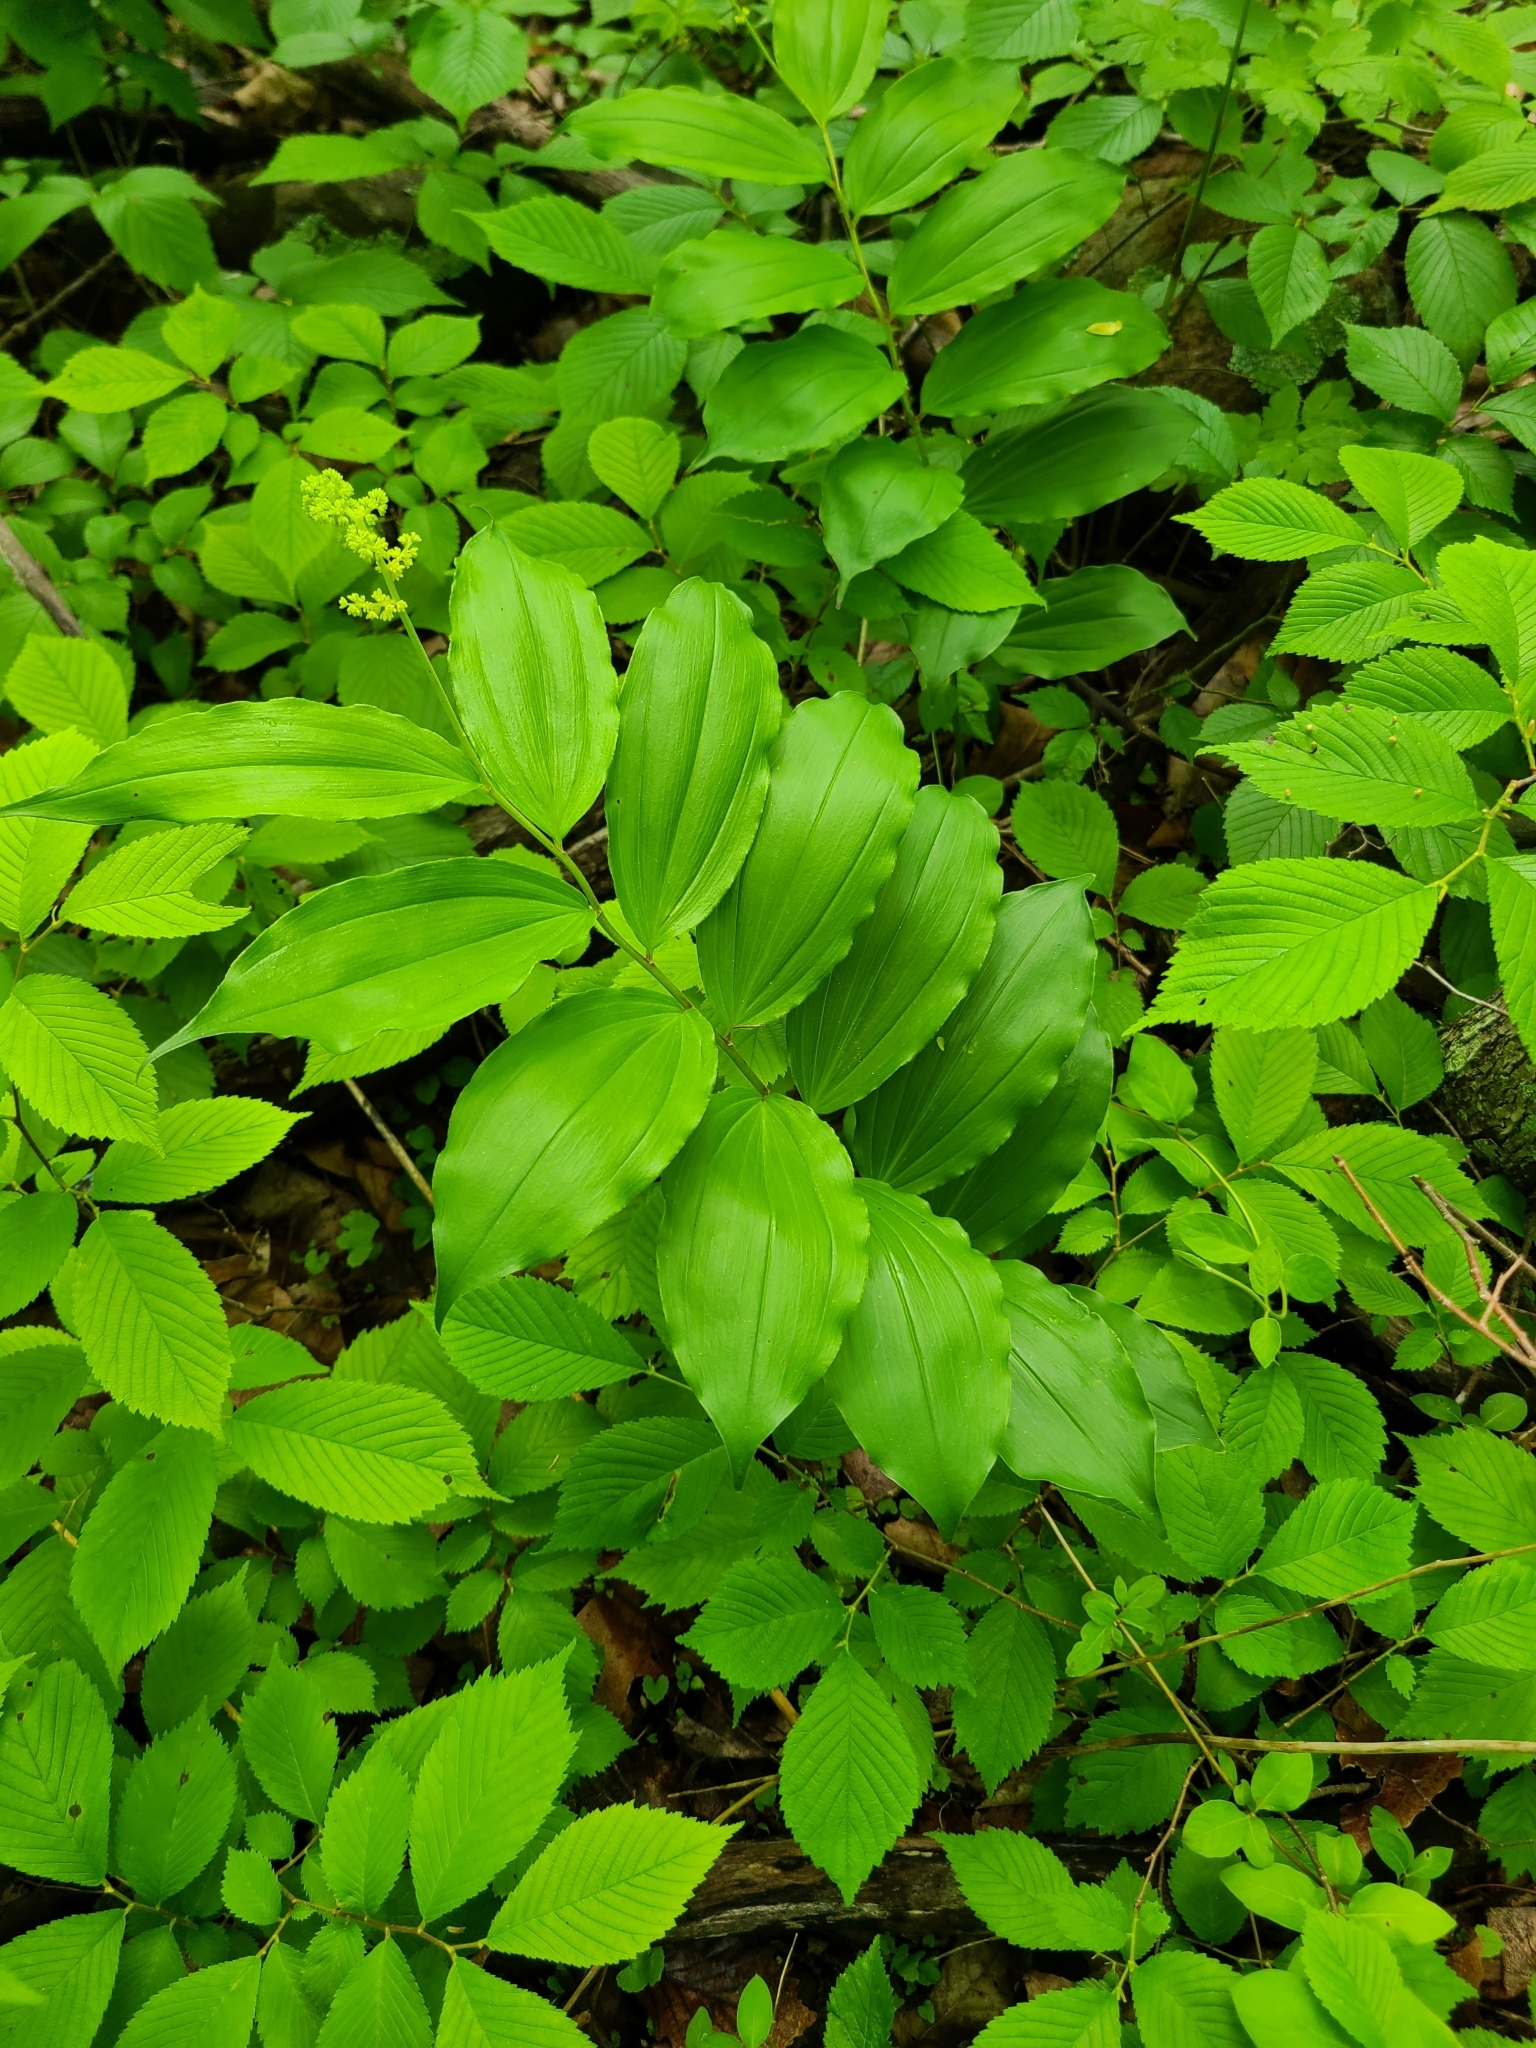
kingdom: Plantae
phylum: Tracheophyta
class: Liliopsida
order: Asparagales
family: Asparagaceae
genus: Maianthemum
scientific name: Maianthemum racemosum
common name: False spikenard
